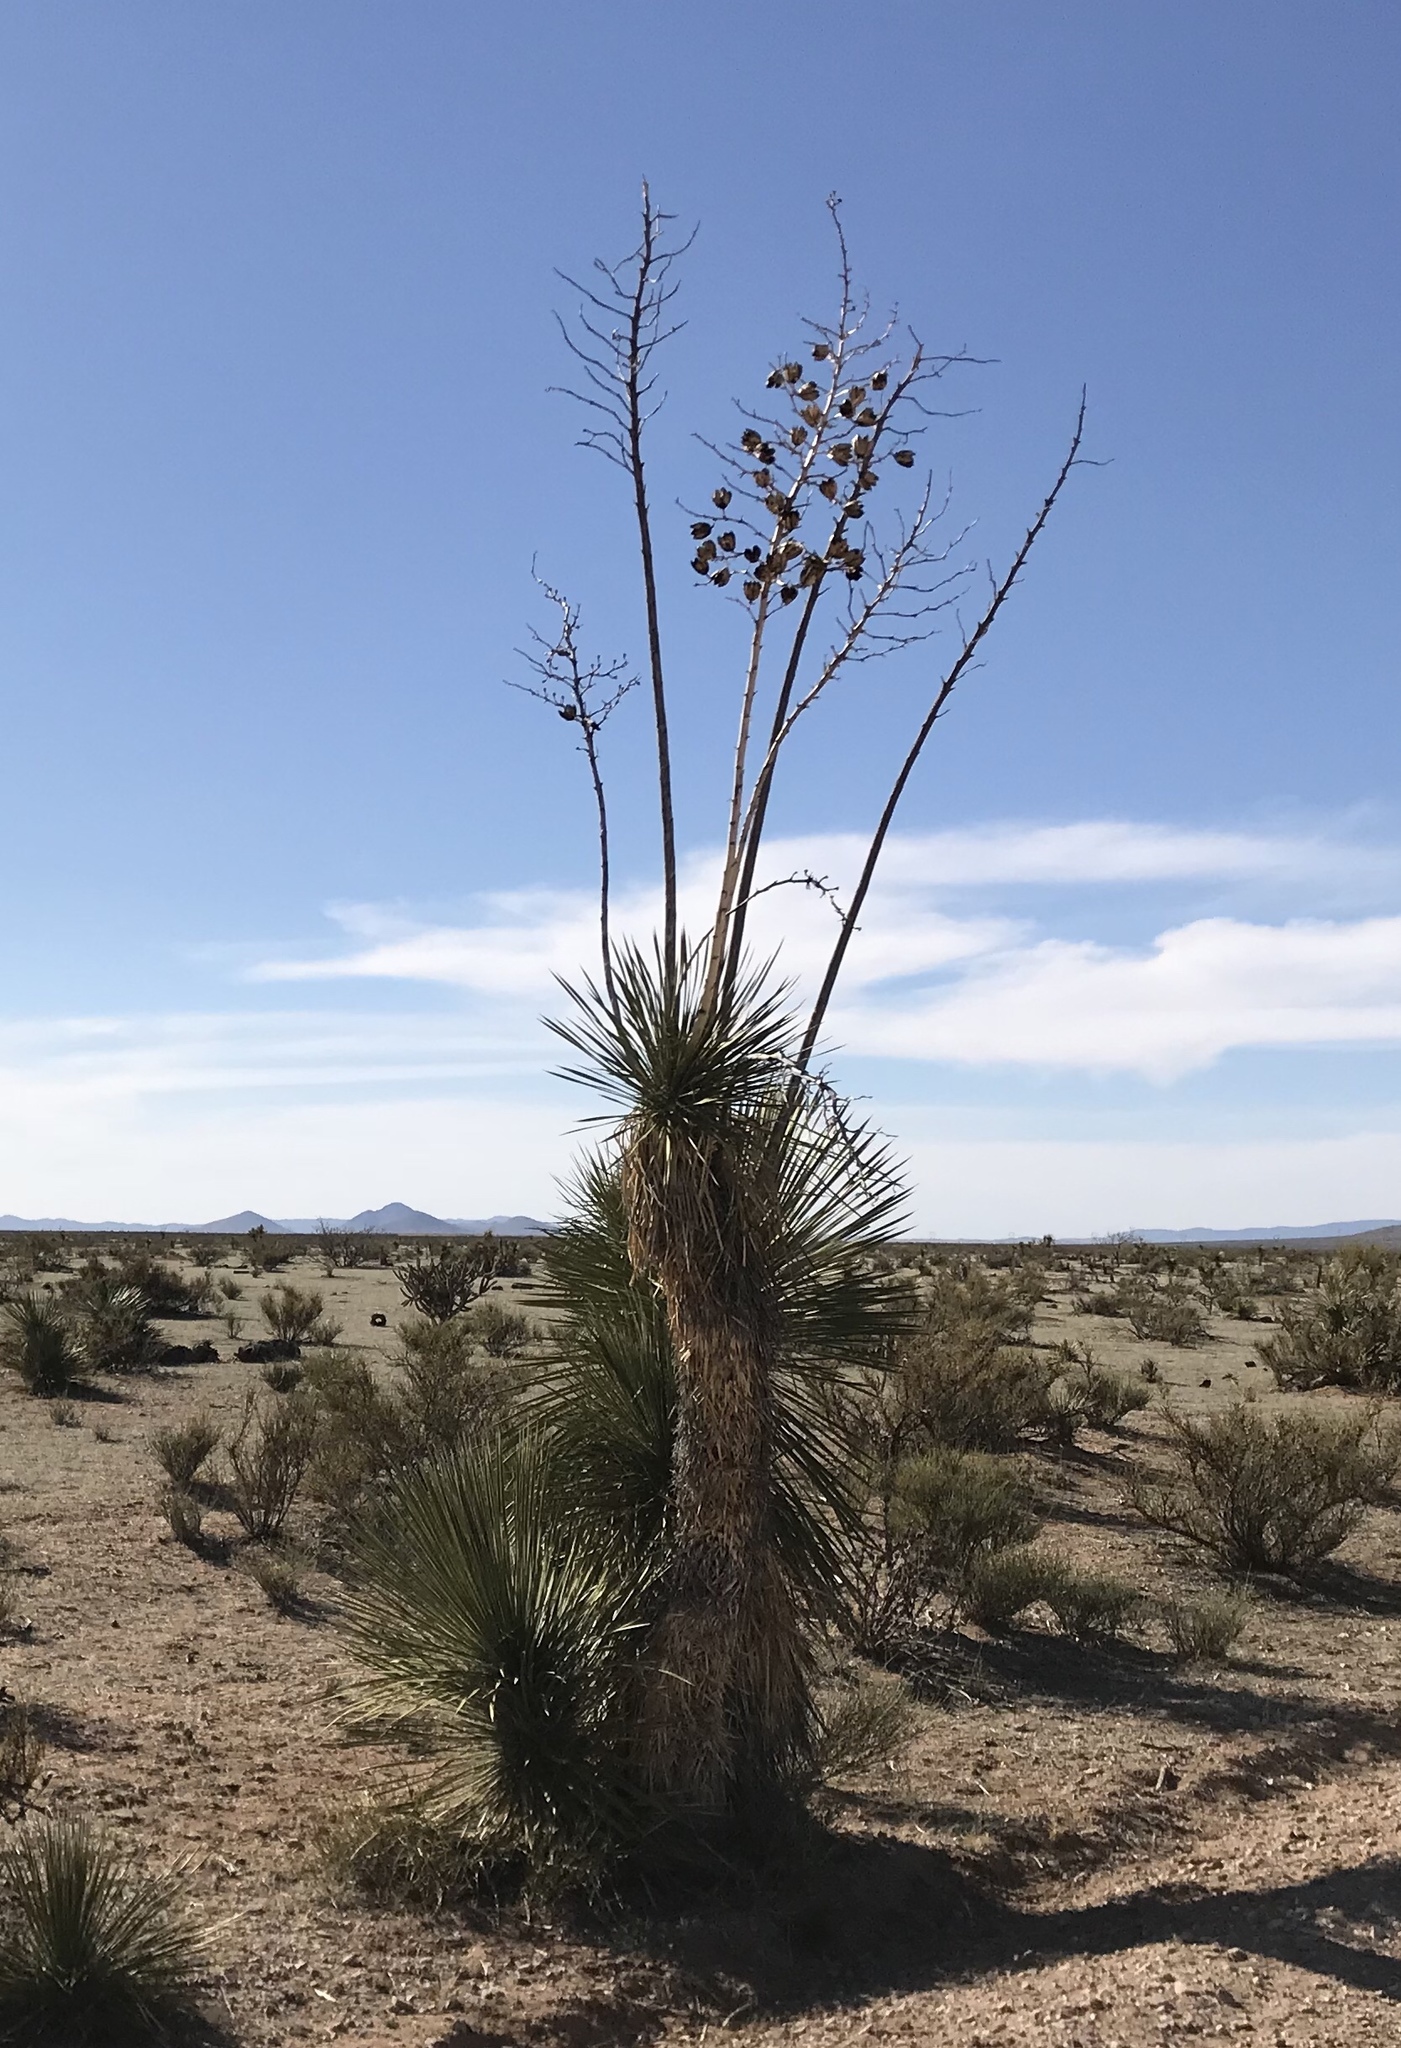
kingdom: Plantae
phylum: Tracheophyta
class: Liliopsida
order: Asparagales
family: Asparagaceae
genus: Yucca
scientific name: Yucca elata
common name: Palmella
